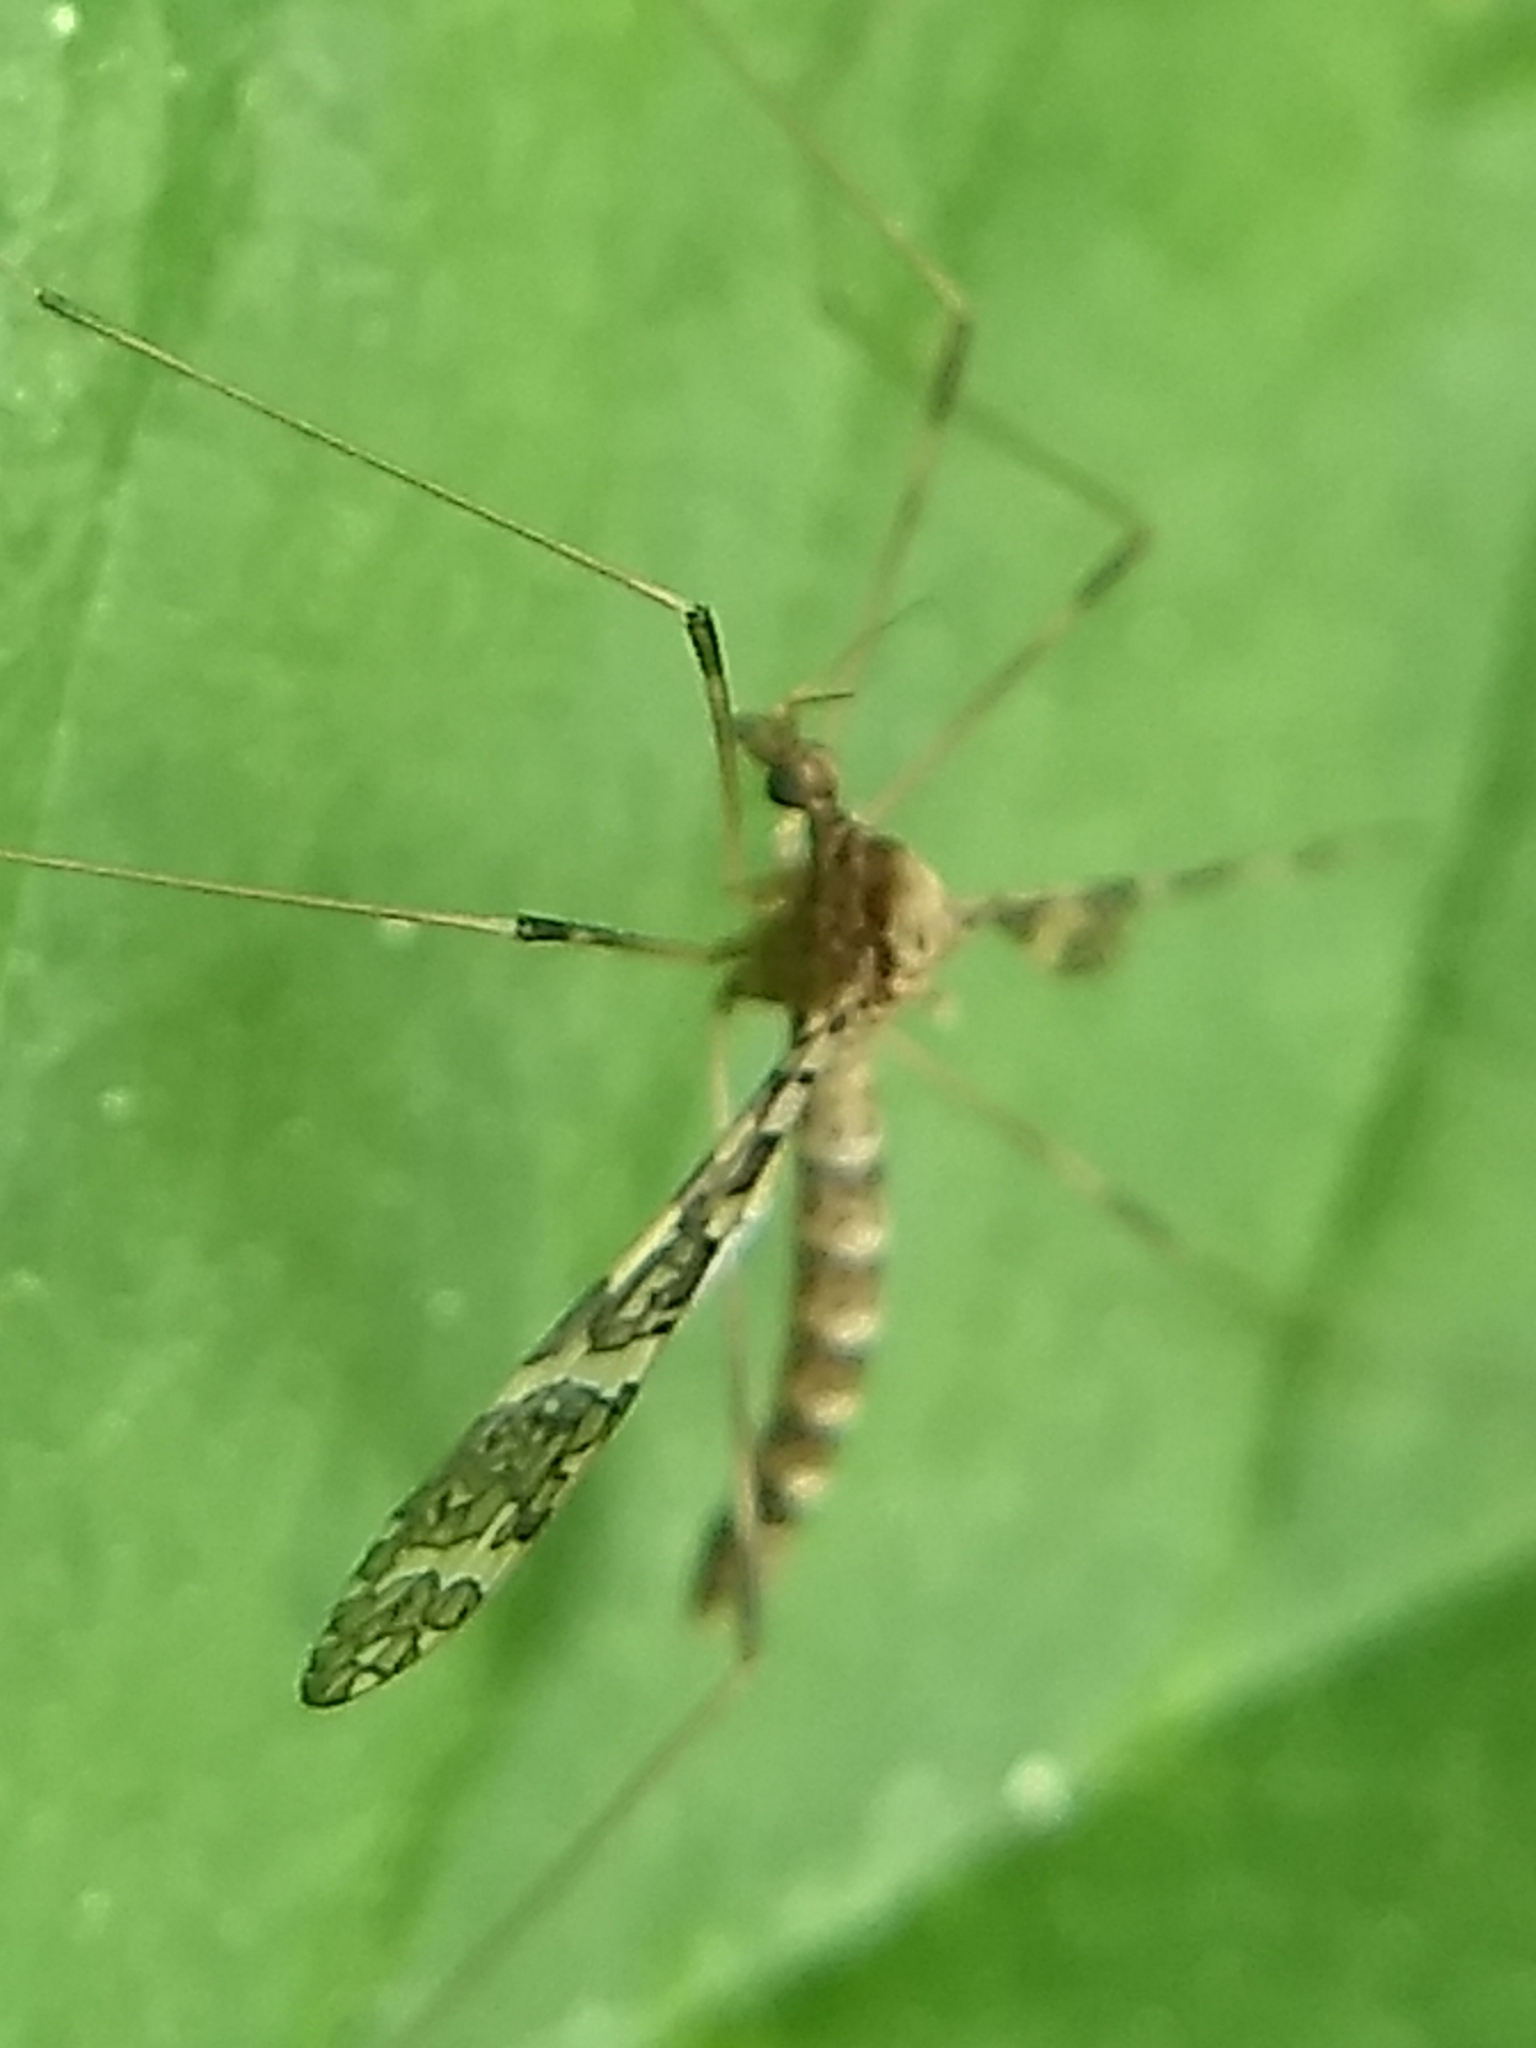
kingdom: Animalia
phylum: Arthropoda
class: Insecta
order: Diptera
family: Limoniidae
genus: Epiphragma
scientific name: Epiphragma fasciapenne
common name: Band-winged crane fly
